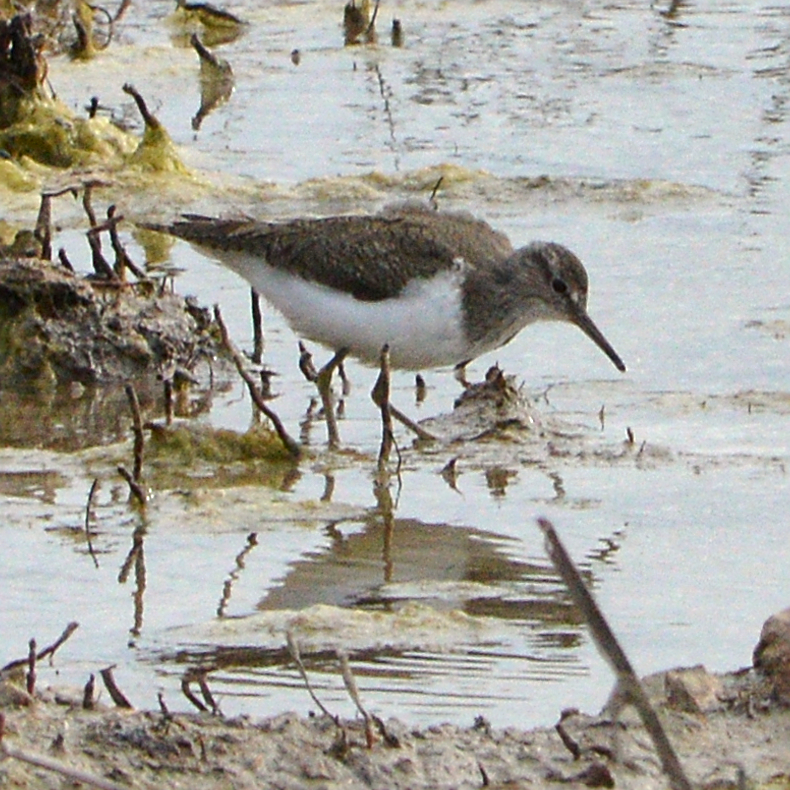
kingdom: Animalia
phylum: Chordata
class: Aves
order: Charadriiformes
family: Scolopacidae
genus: Actitis
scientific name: Actitis hypoleucos
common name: Common sandpiper
